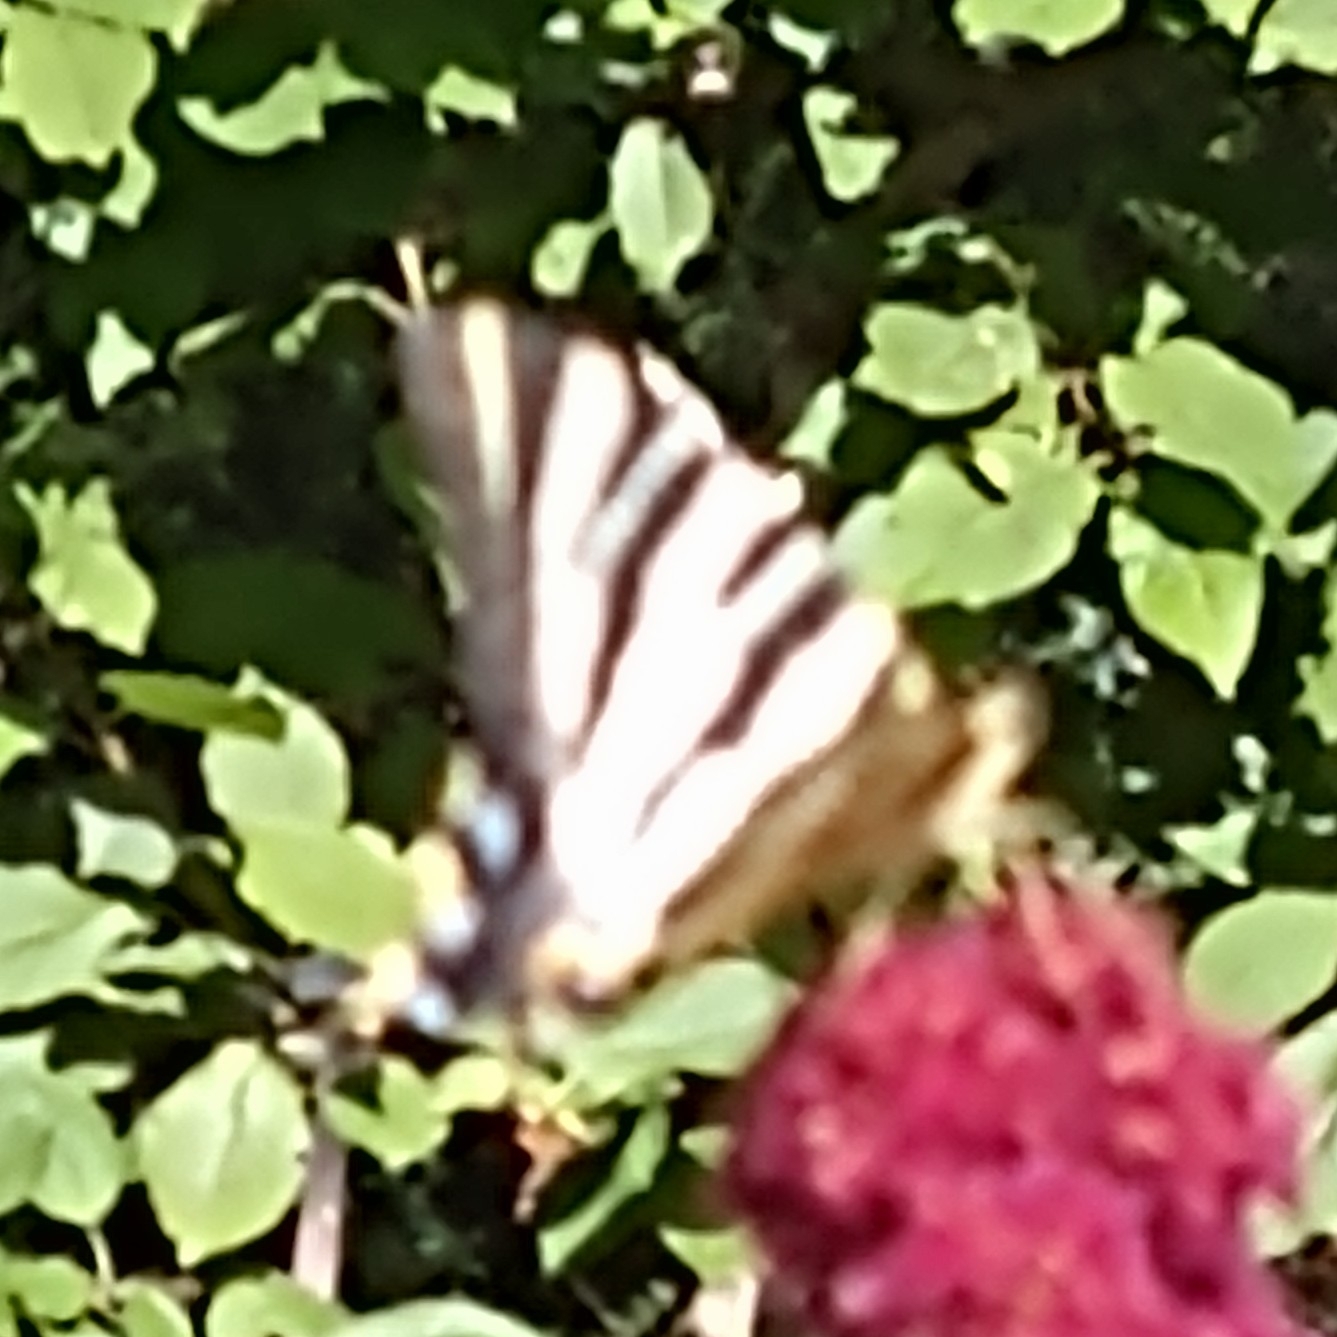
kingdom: Animalia
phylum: Arthropoda
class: Insecta
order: Lepidoptera
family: Papilionidae
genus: Iphiclides
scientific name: Iphiclides feisthamelii
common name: Iberian scarce swallowtail
